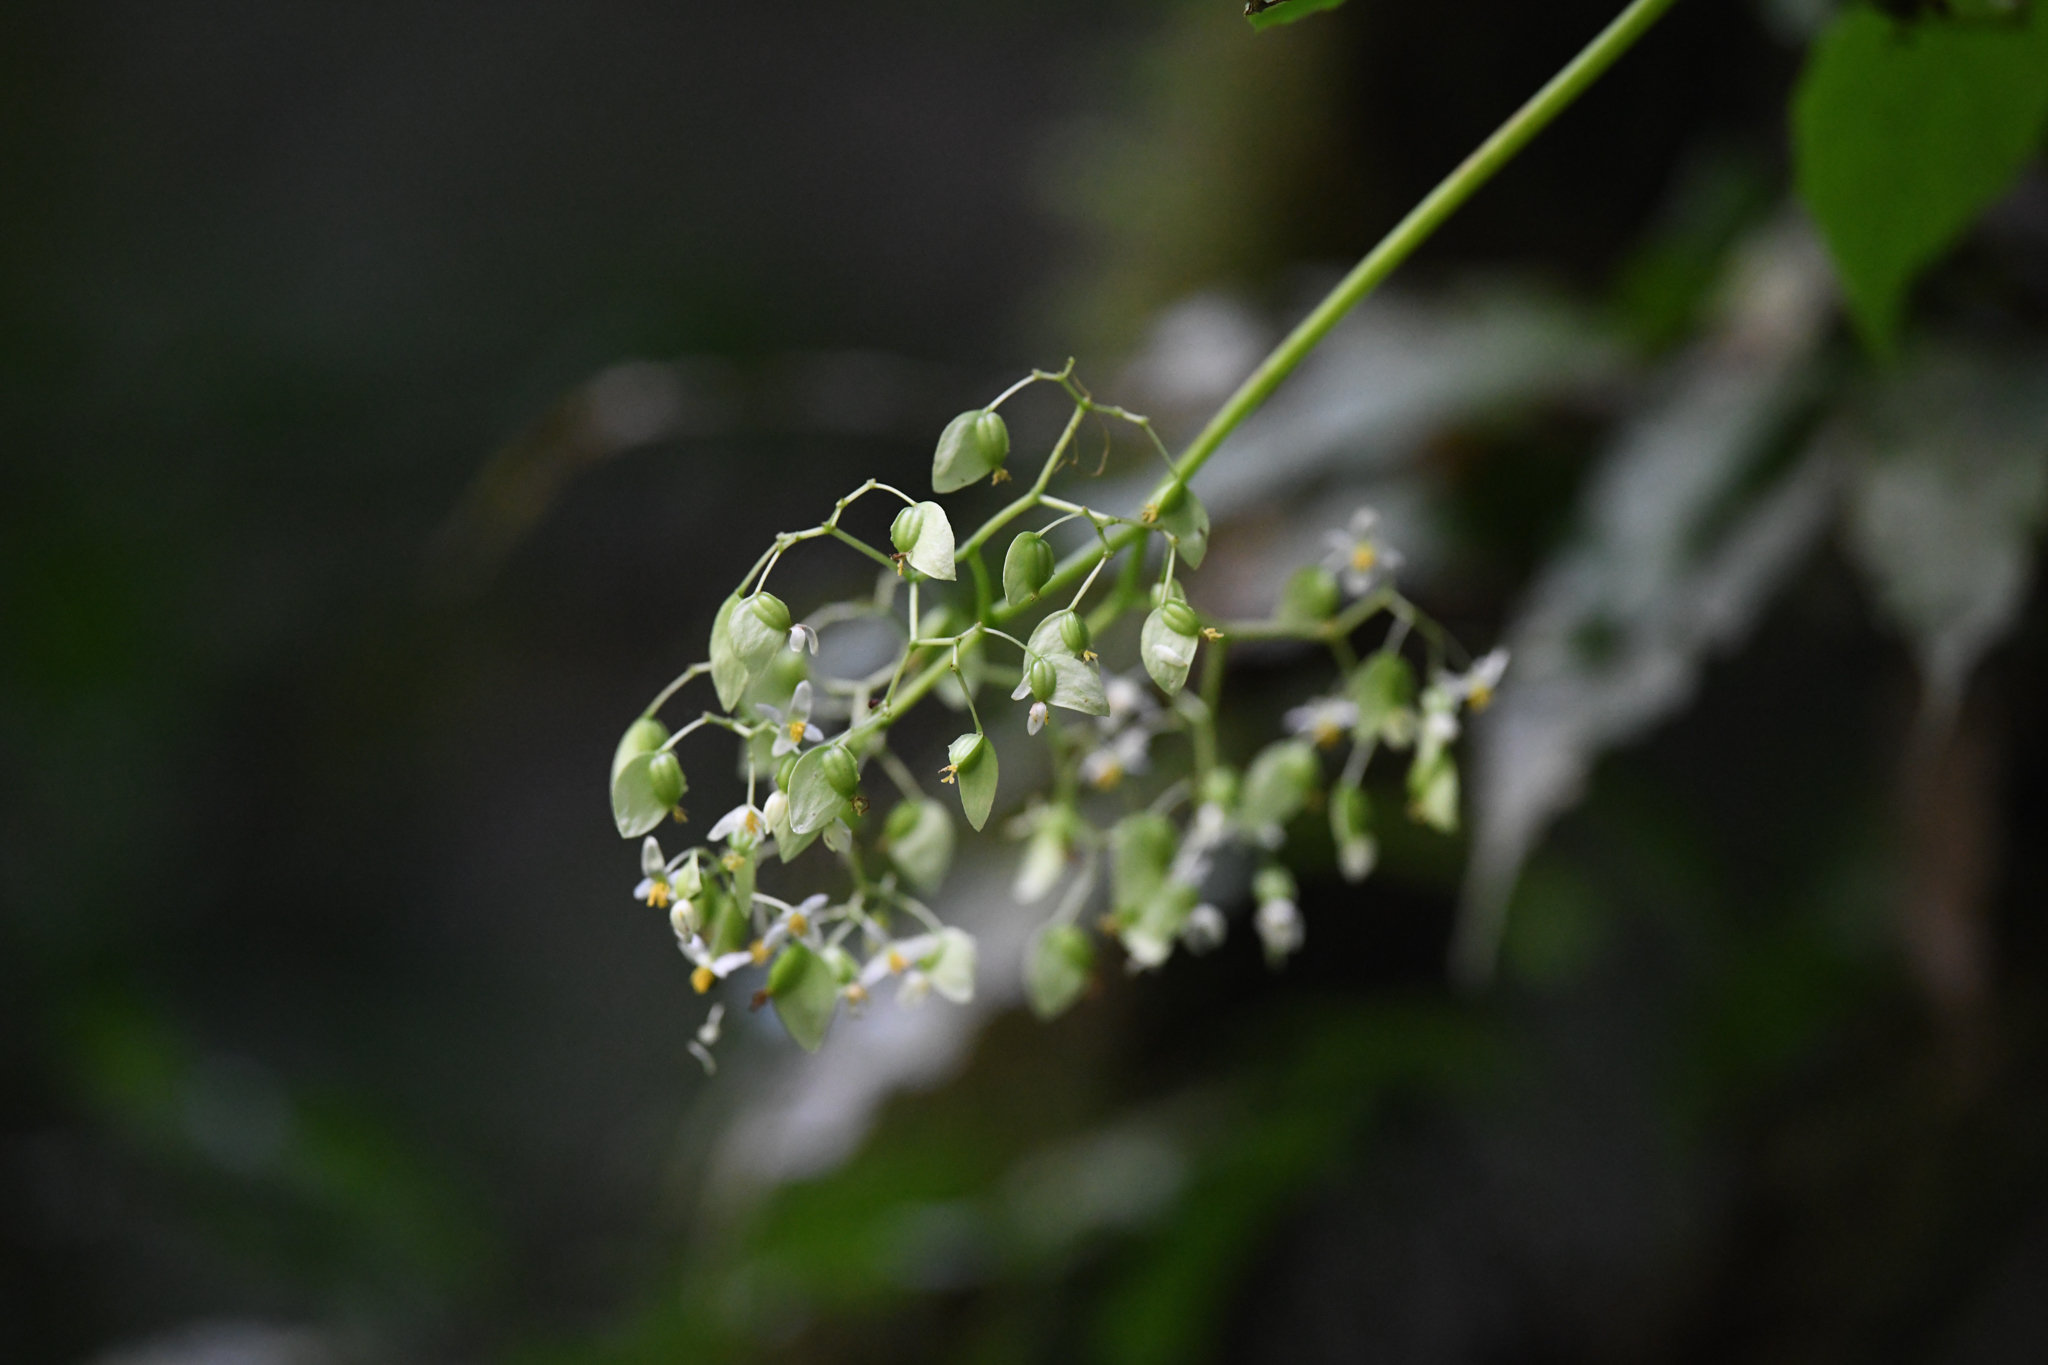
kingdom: Plantae
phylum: Tracheophyta
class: Magnoliopsida
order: Cucurbitales
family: Begoniaceae
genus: Begonia
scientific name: Begonia glabra
